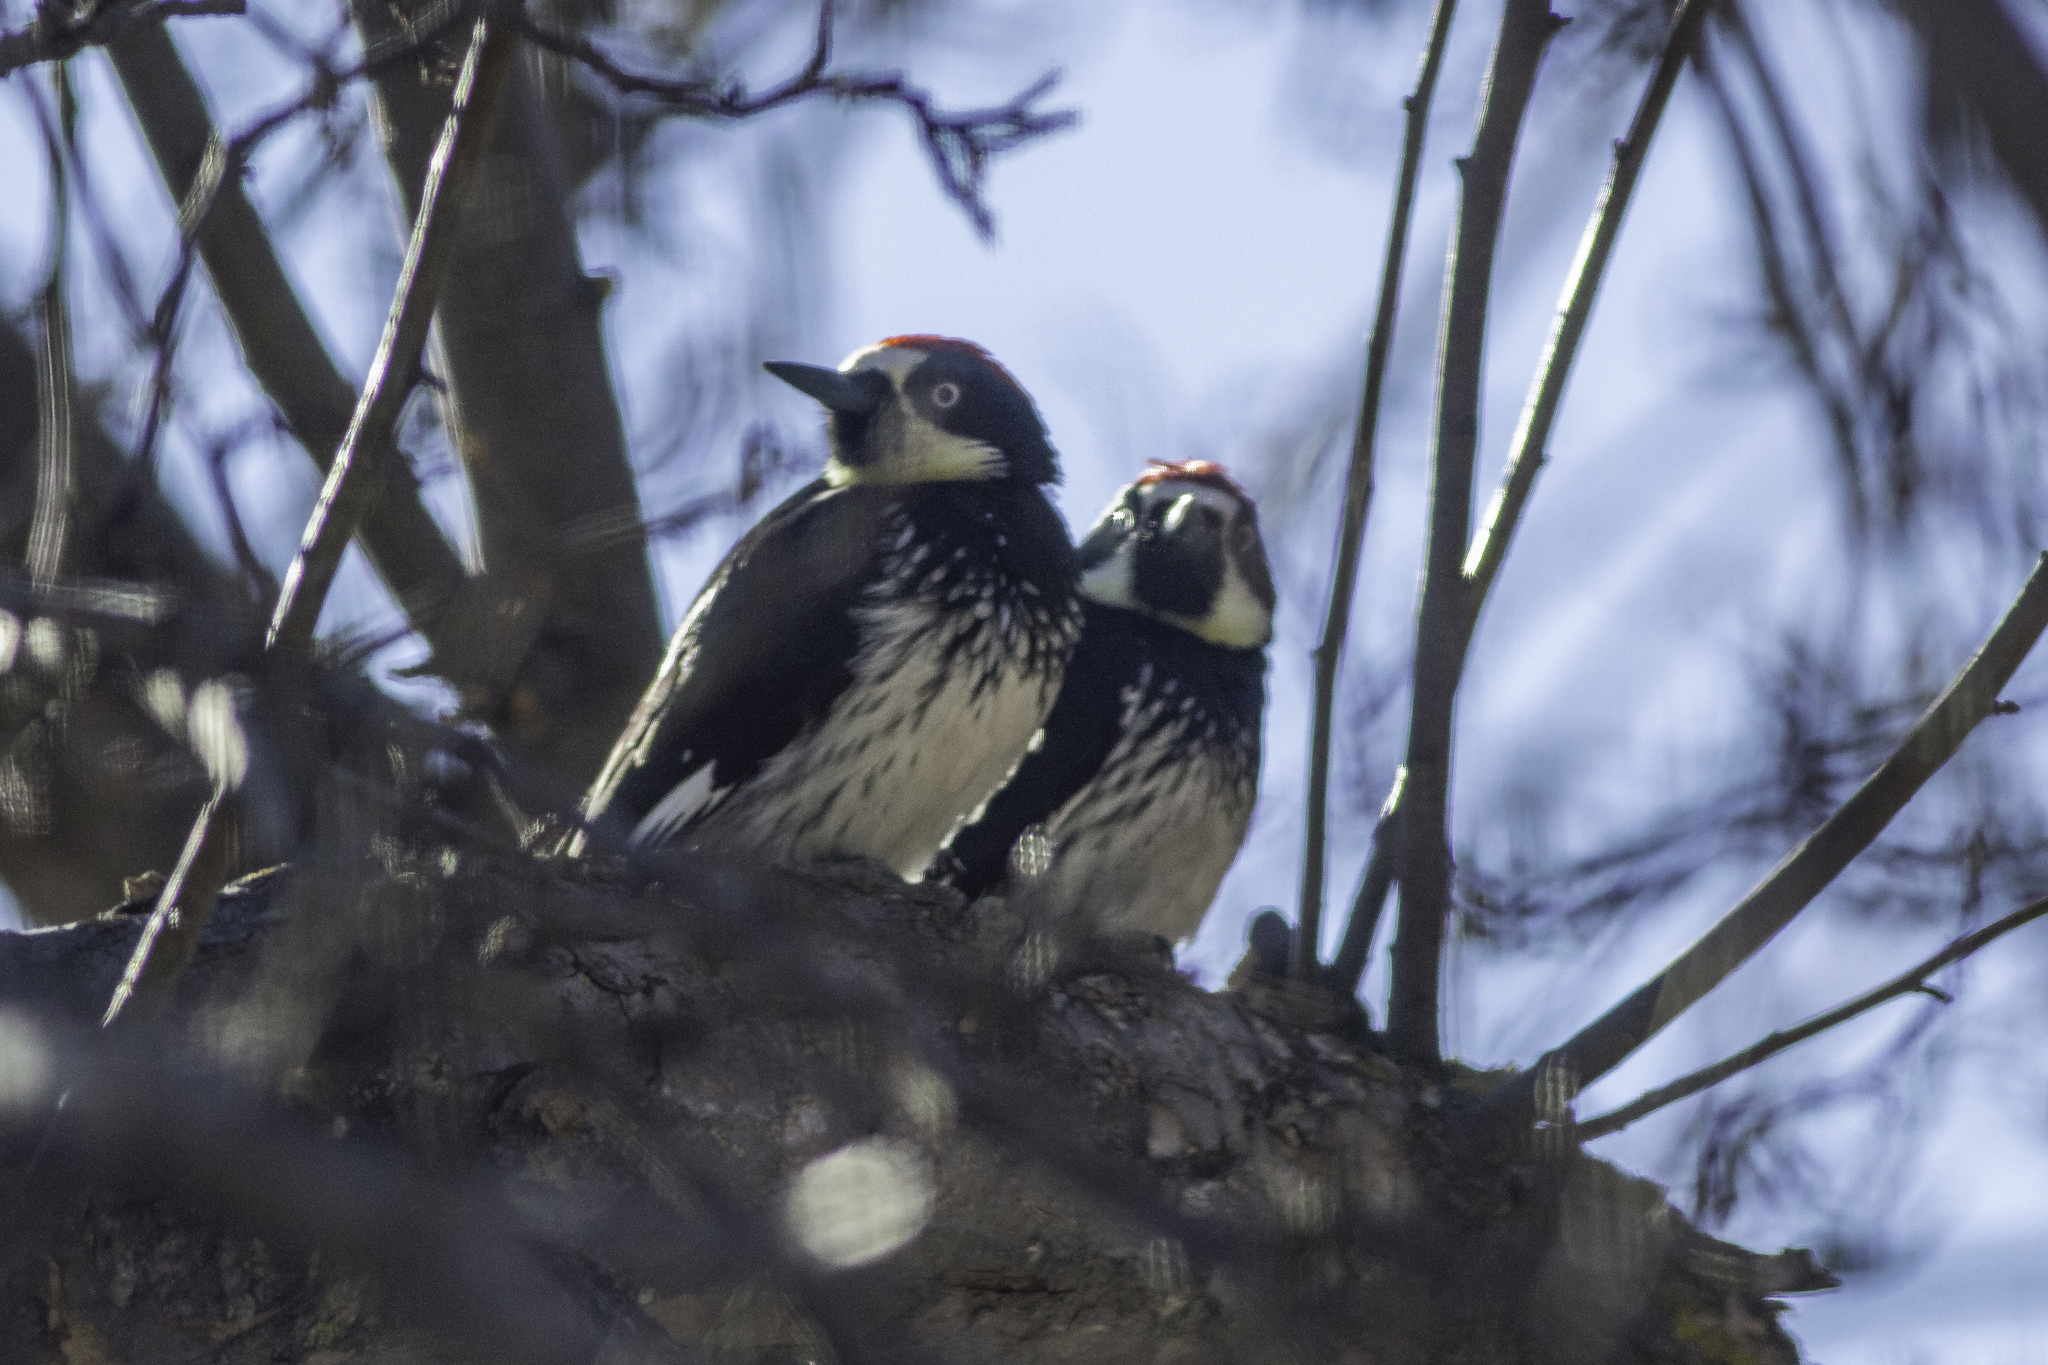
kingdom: Animalia
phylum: Chordata
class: Aves
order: Piciformes
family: Picidae
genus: Melanerpes
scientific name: Melanerpes formicivorus
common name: Acorn woodpecker
